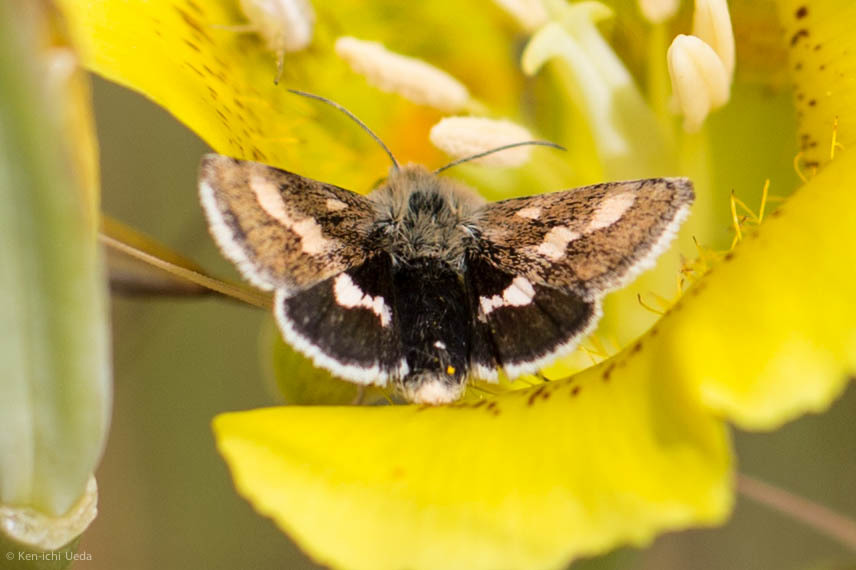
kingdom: Animalia
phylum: Arthropoda
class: Insecta
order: Lepidoptera
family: Noctuidae
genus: Heliothodes
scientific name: Heliothodes diminutiva
